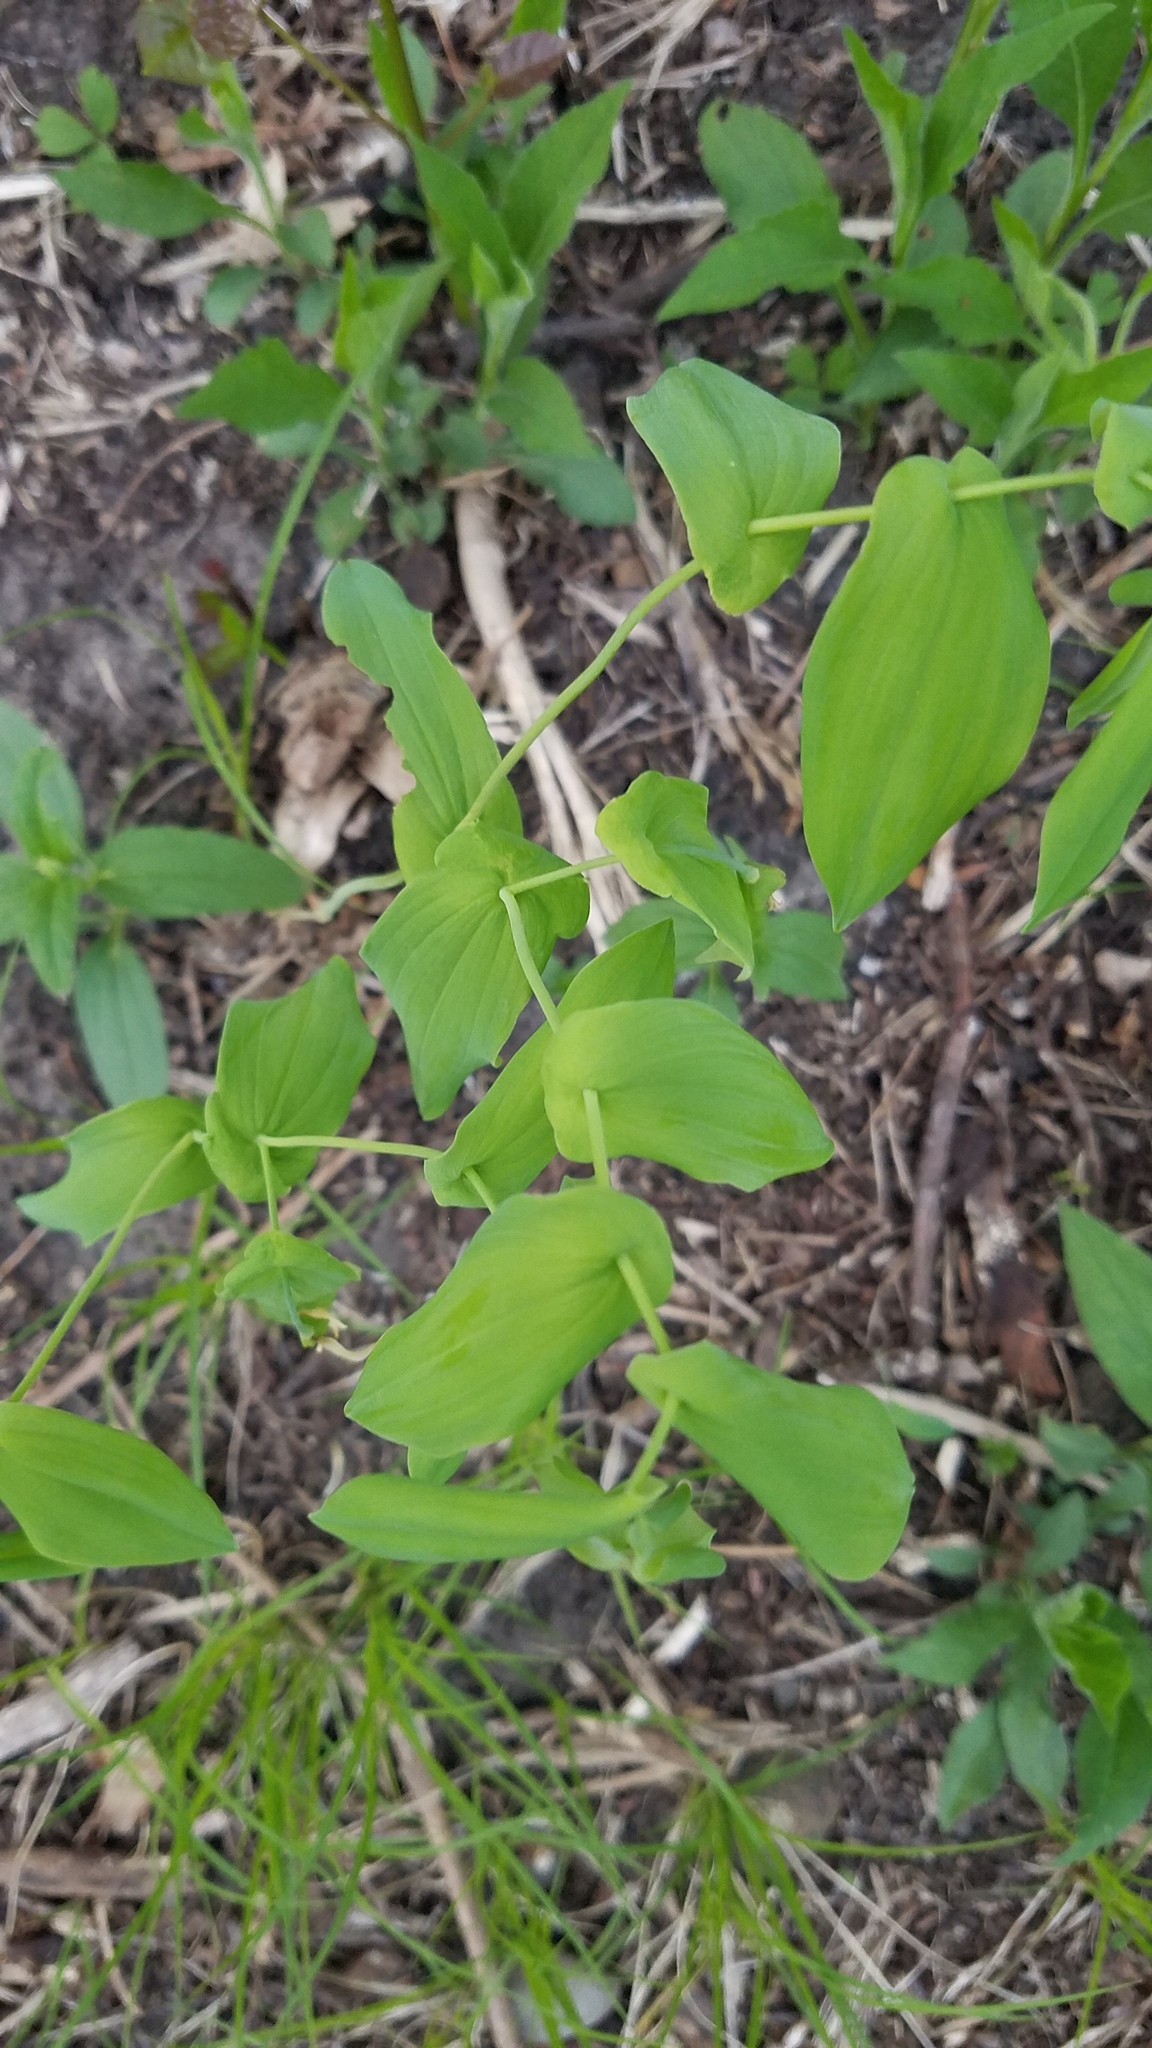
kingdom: Plantae
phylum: Tracheophyta
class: Liliopsida
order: Liliales
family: Colchicaceae
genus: Uvularia
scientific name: Uvularia grandiflora
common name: Bellwort
